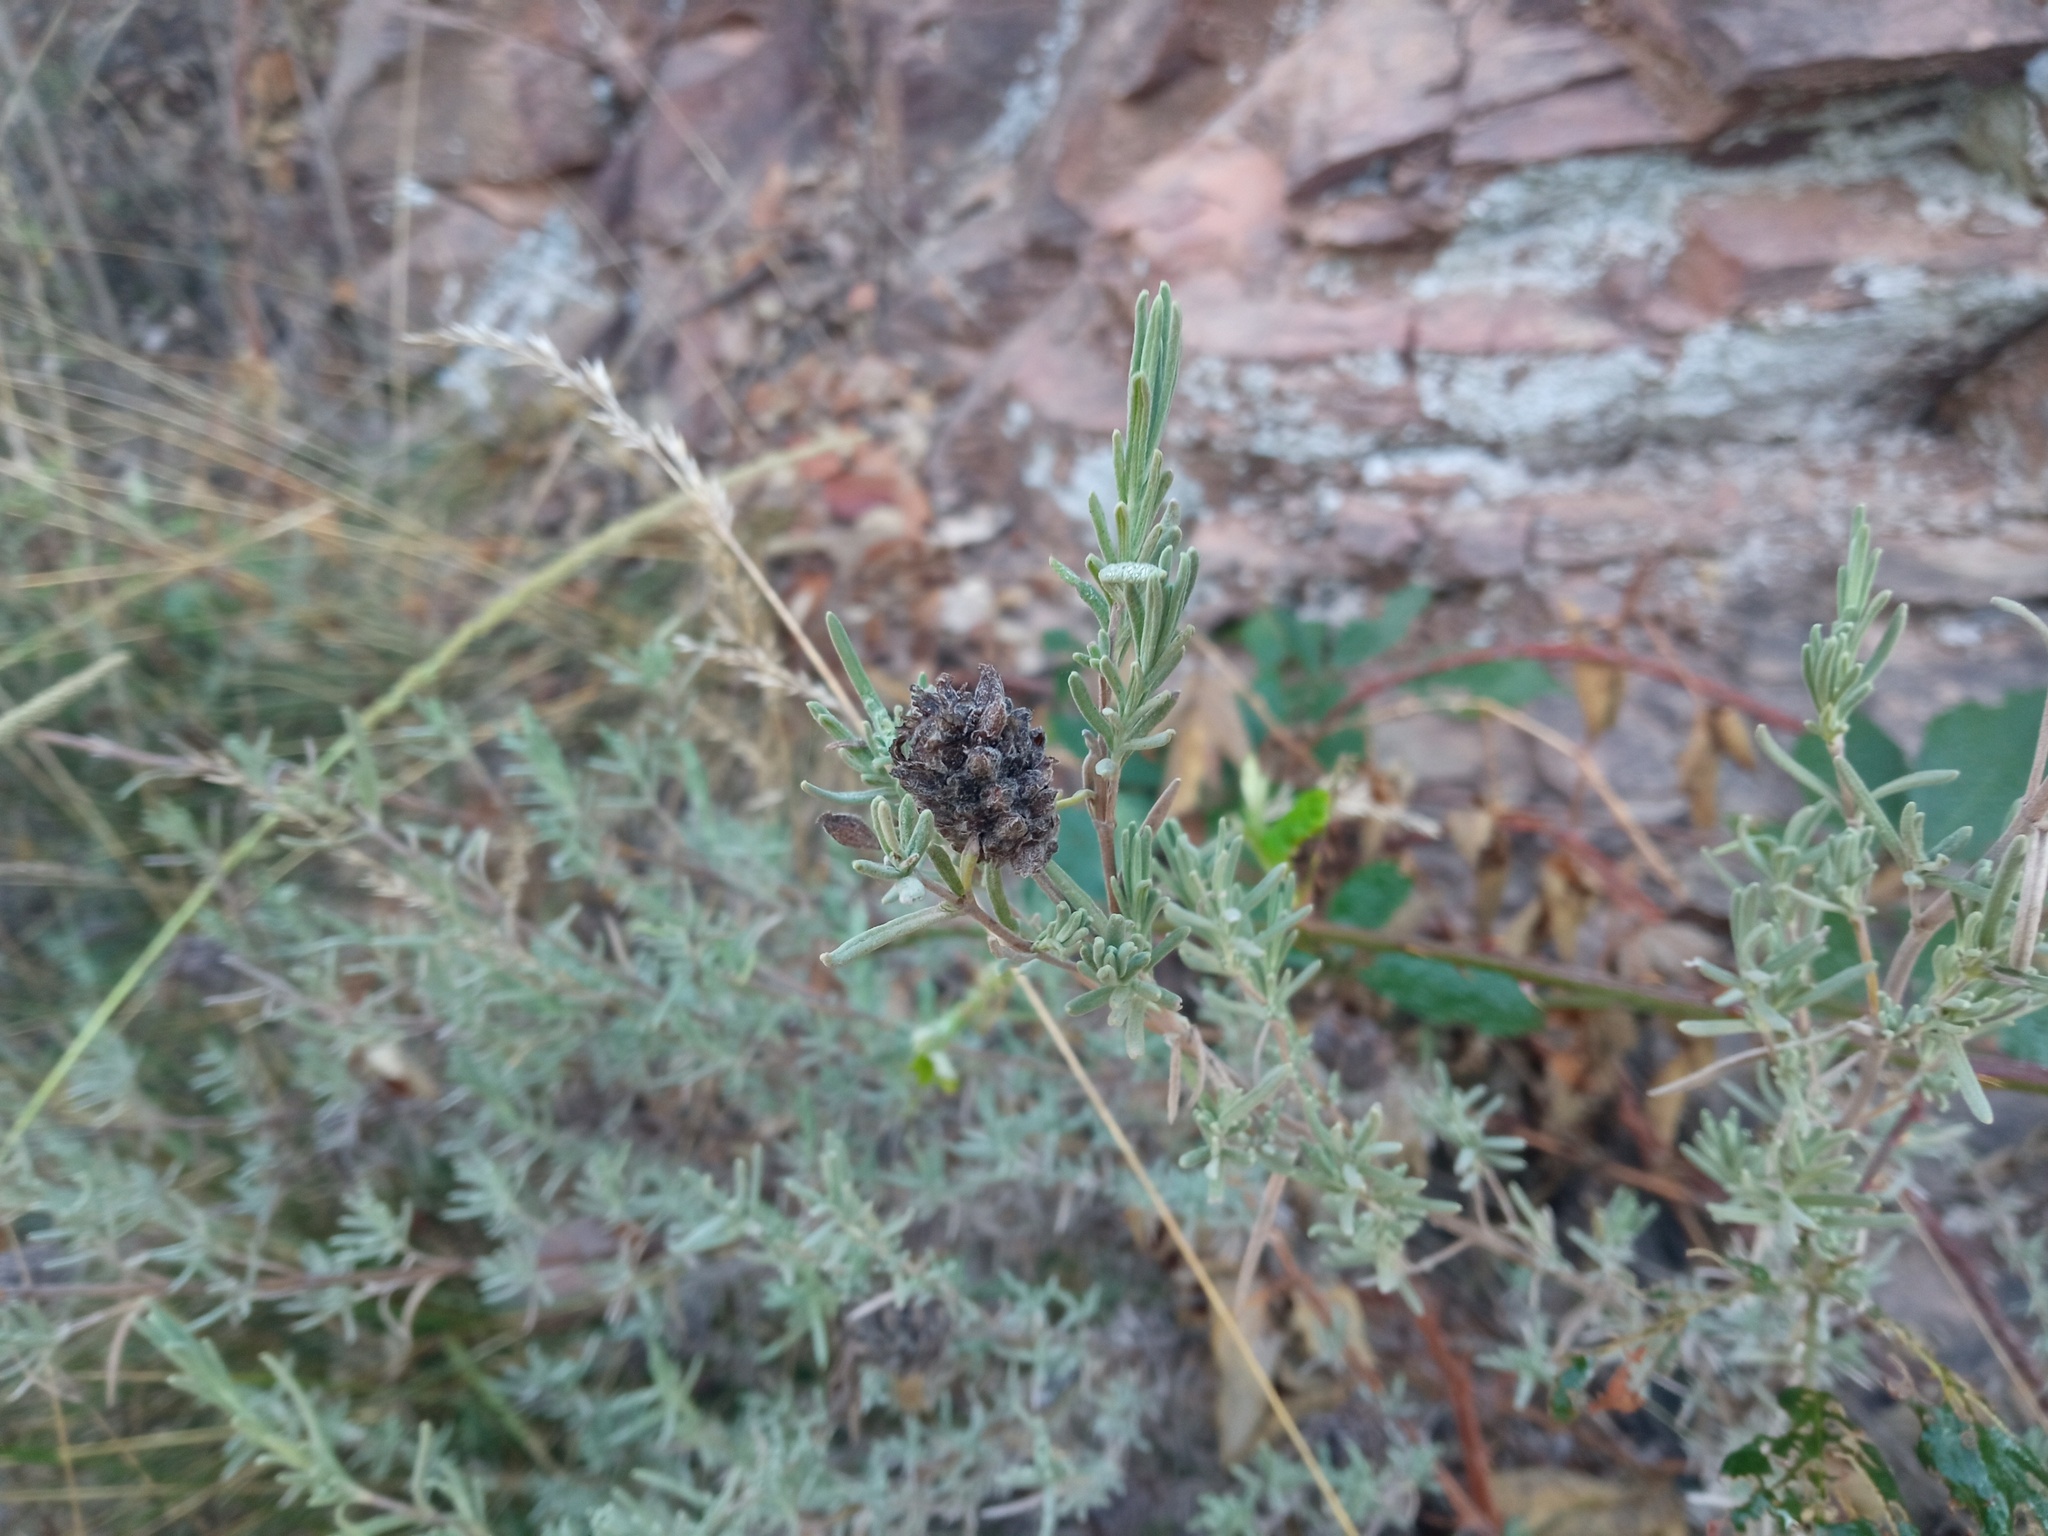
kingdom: Plantae
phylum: Tracheophyta
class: Magnoliopsida
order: Lamiales
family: Lamiaceae
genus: Lavandula
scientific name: Lavandula stoechas
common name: French lavender
